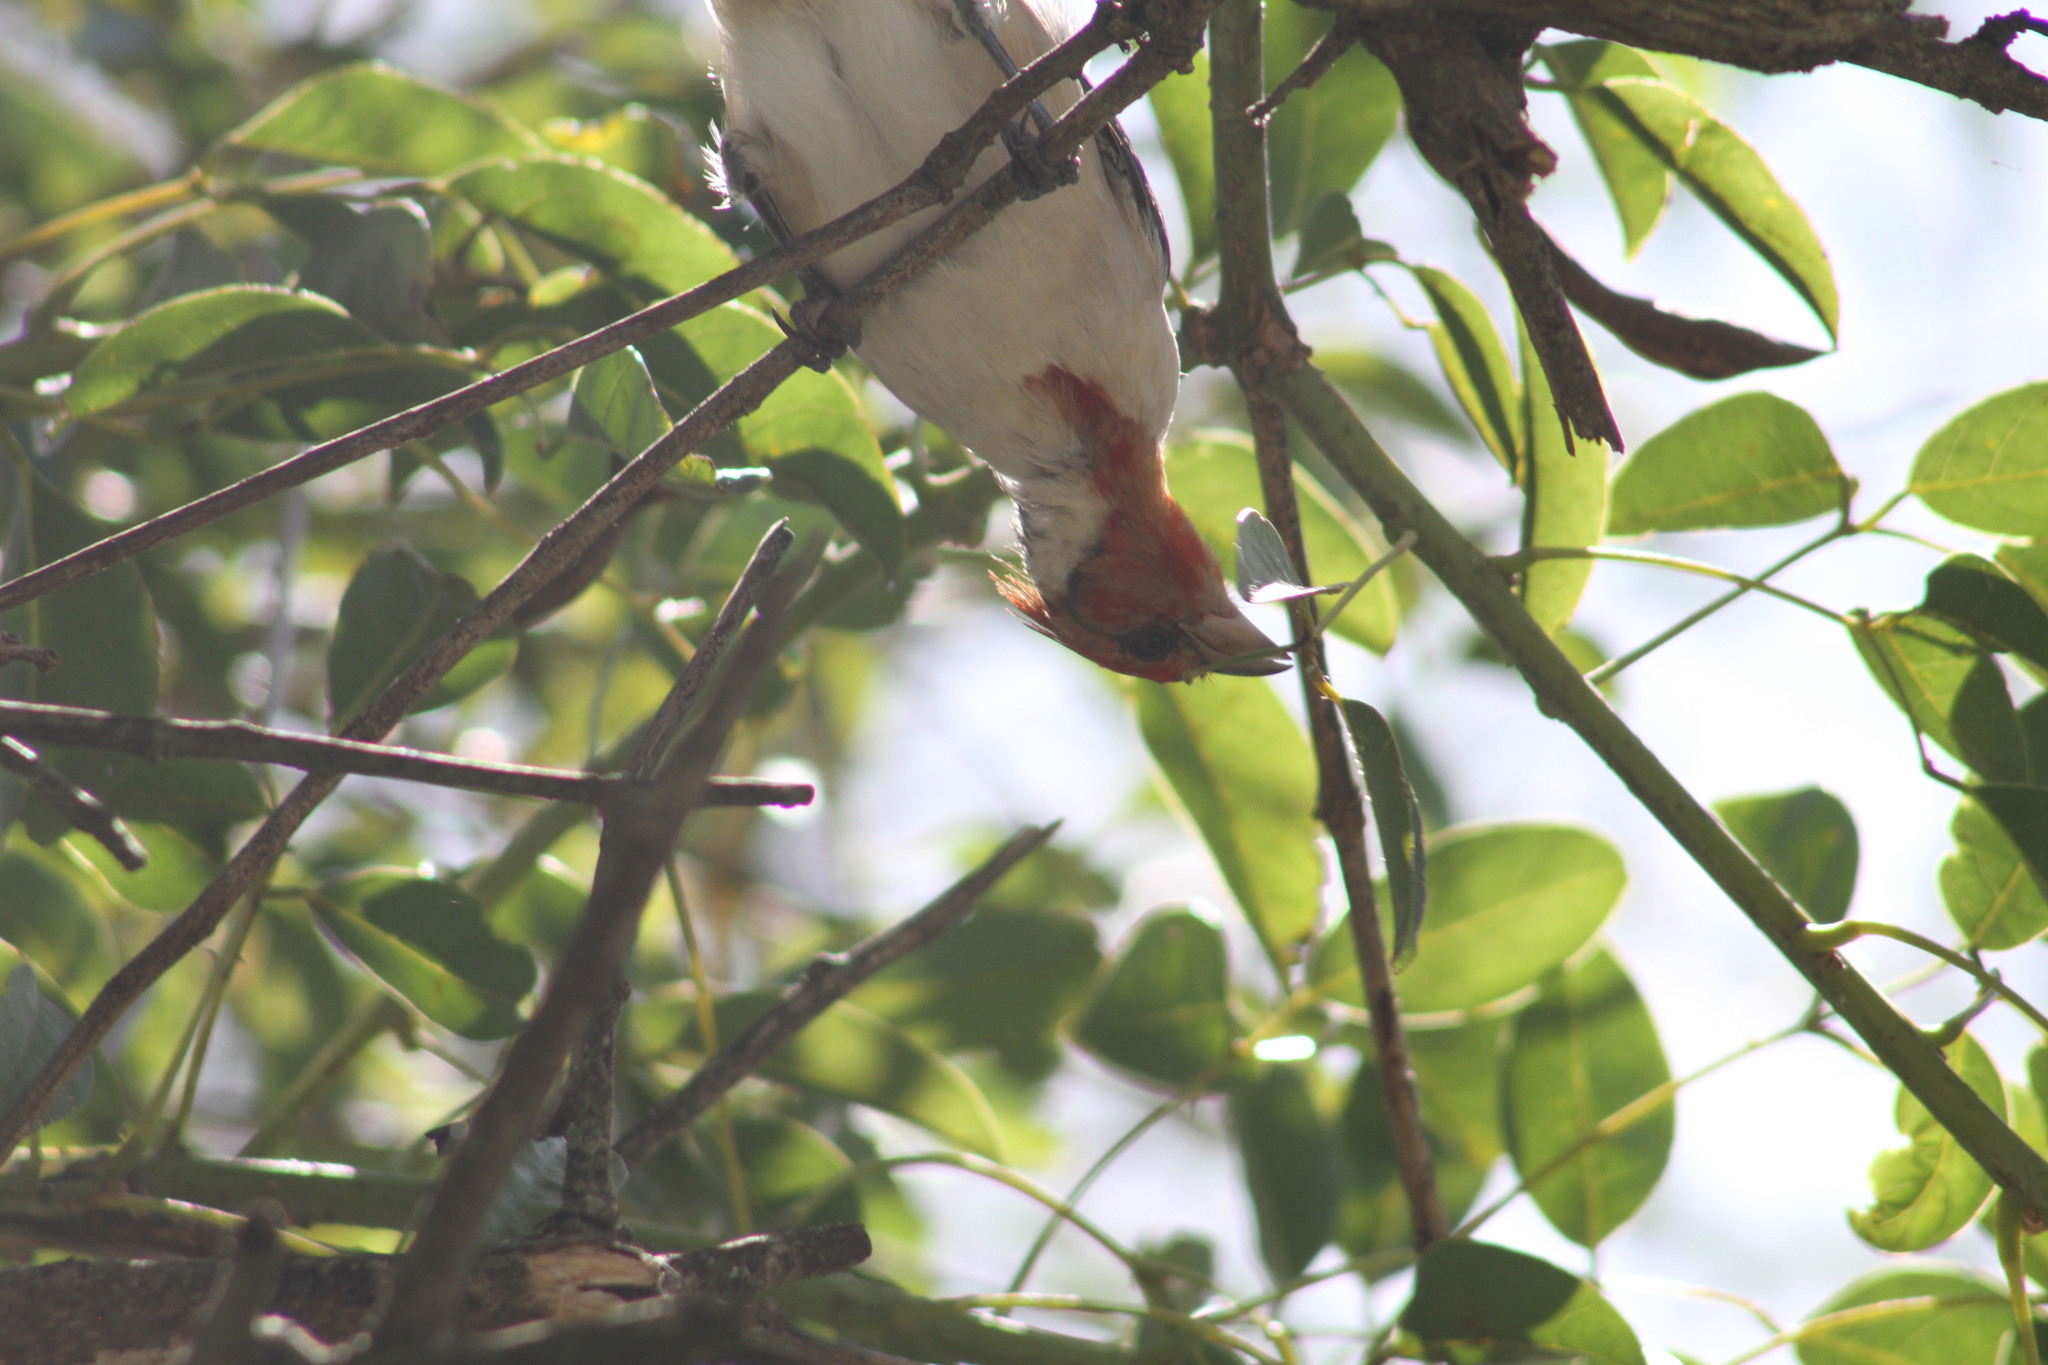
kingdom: Animalia
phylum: Chordata
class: Aves
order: Passeriformes
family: Thraupidae
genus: Paroaria
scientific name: Paroaria coronata
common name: Red-crested cardinal
